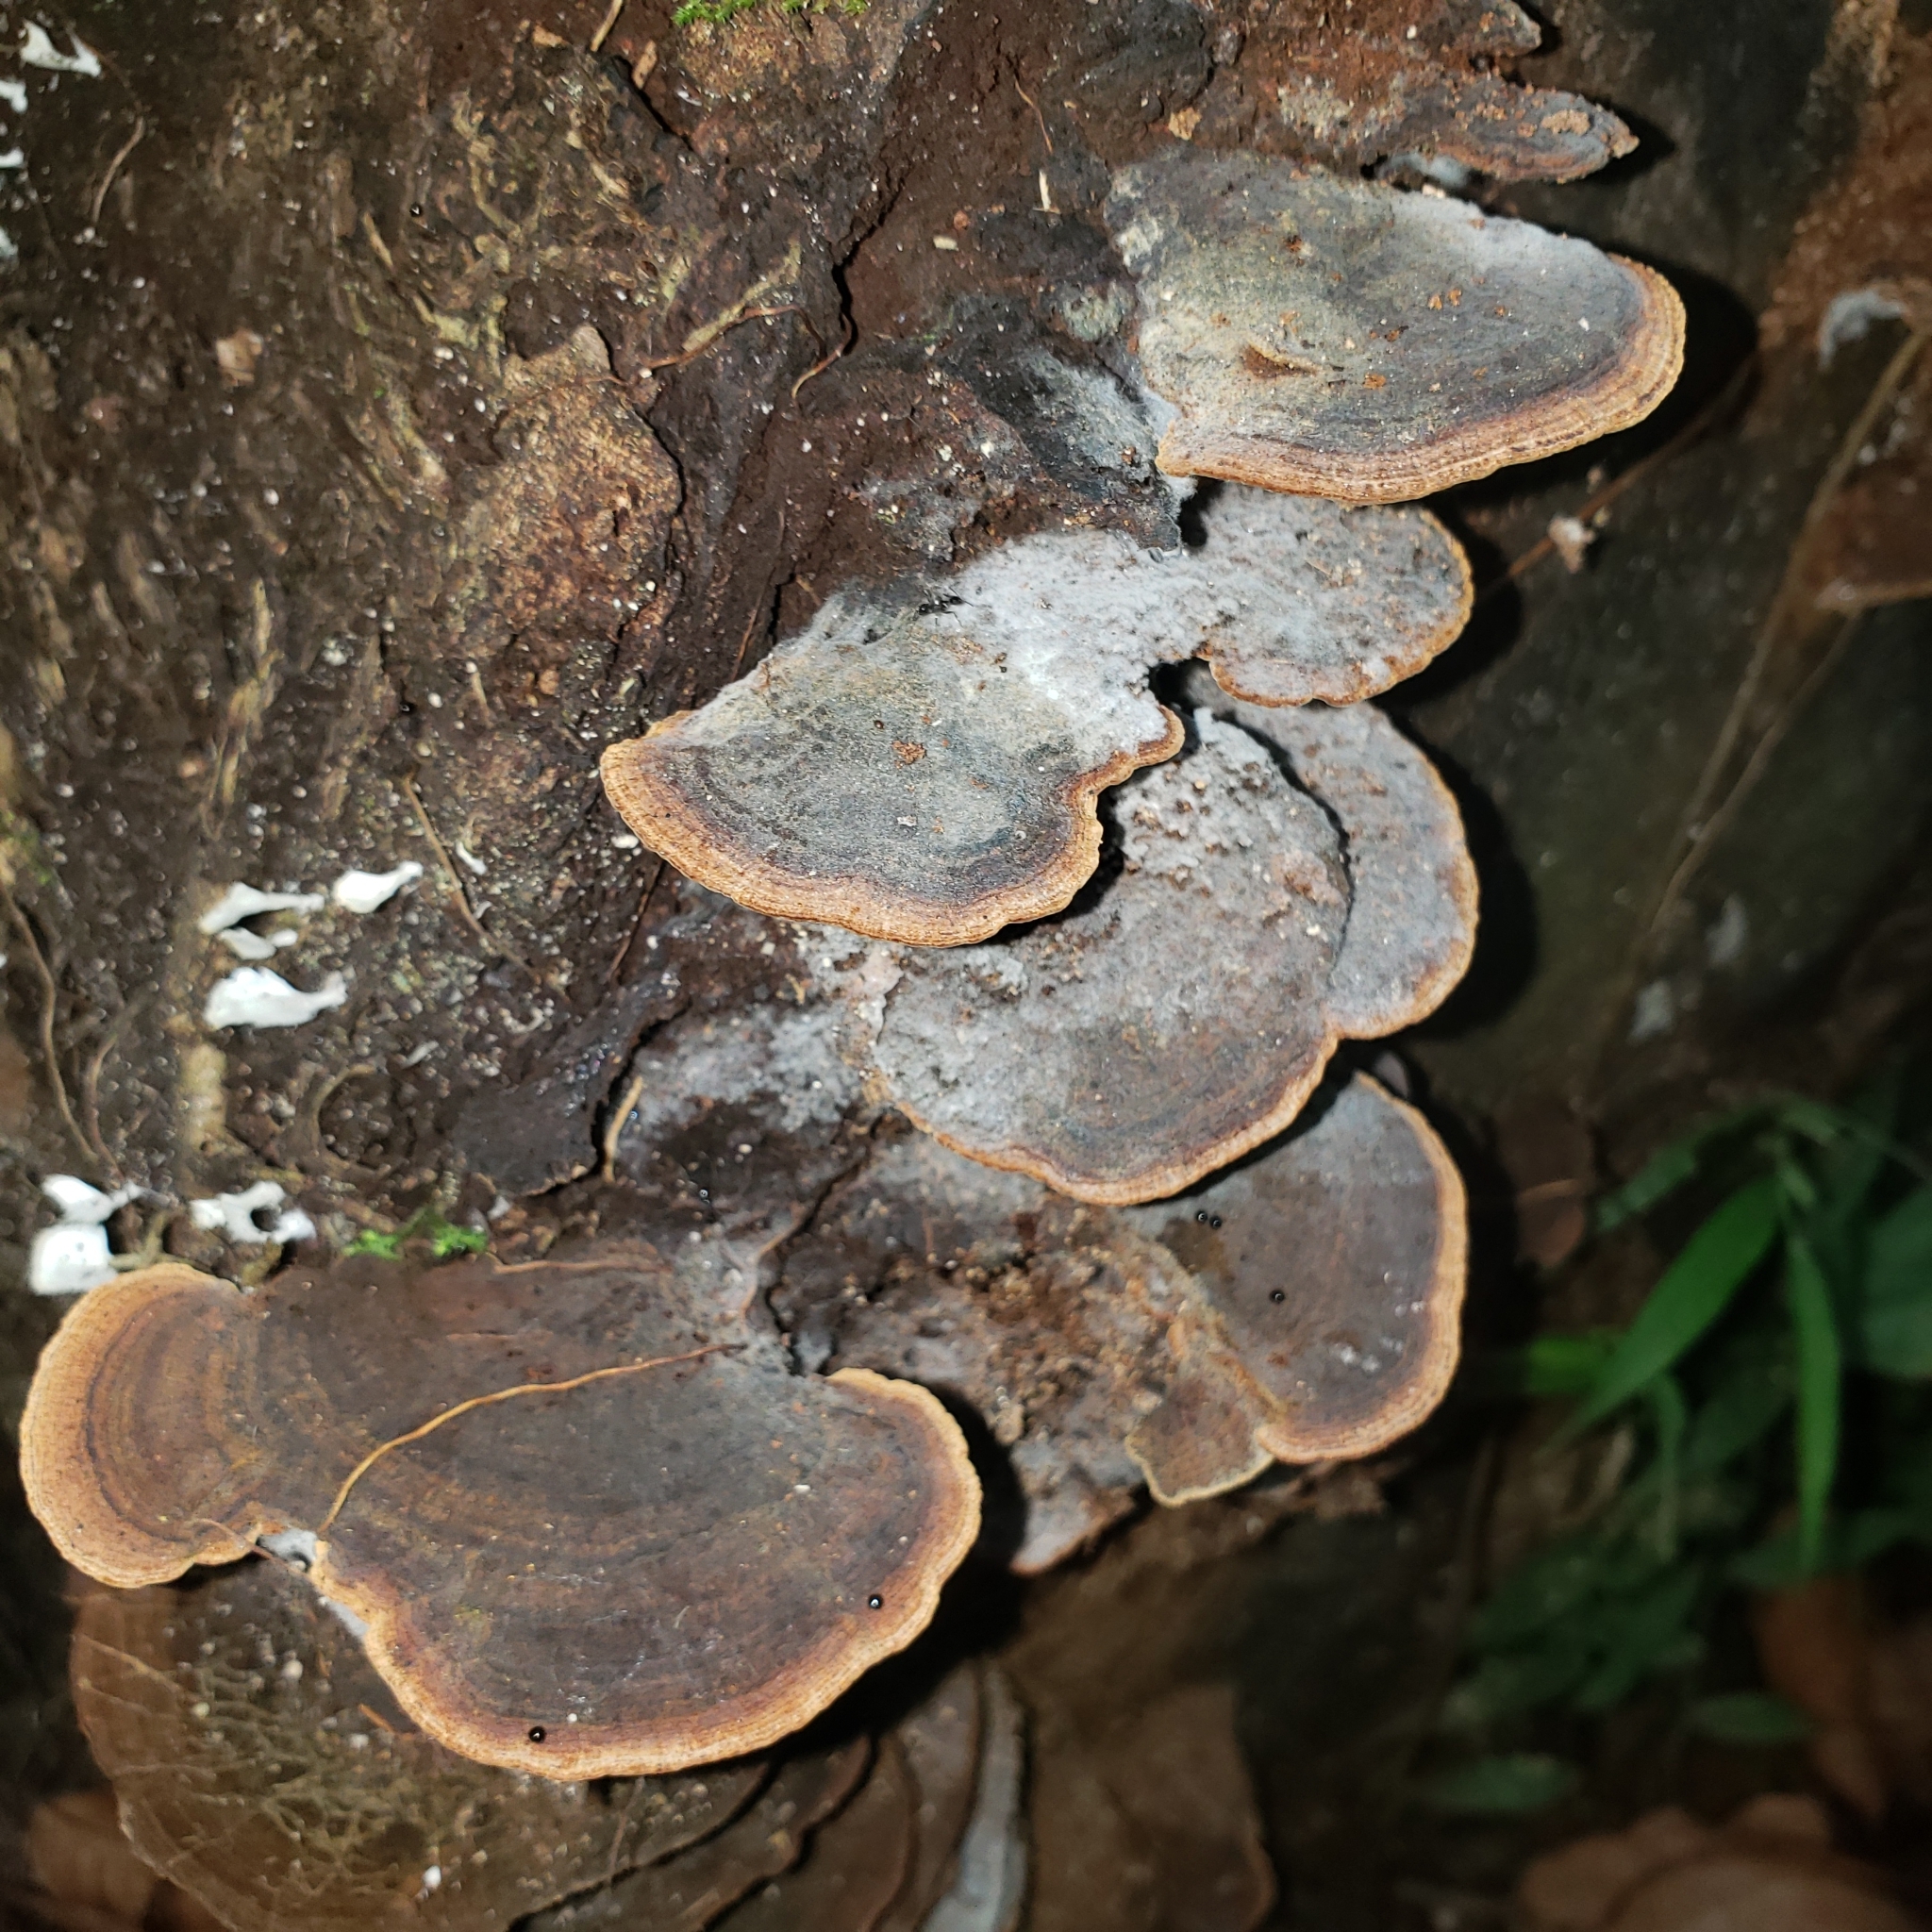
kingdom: Fungi
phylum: Basidiomycota
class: Agaricomycetes
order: Hymenochaetales
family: Hymenochaetaceae
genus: Phellinus
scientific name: Phellinus gilvus
